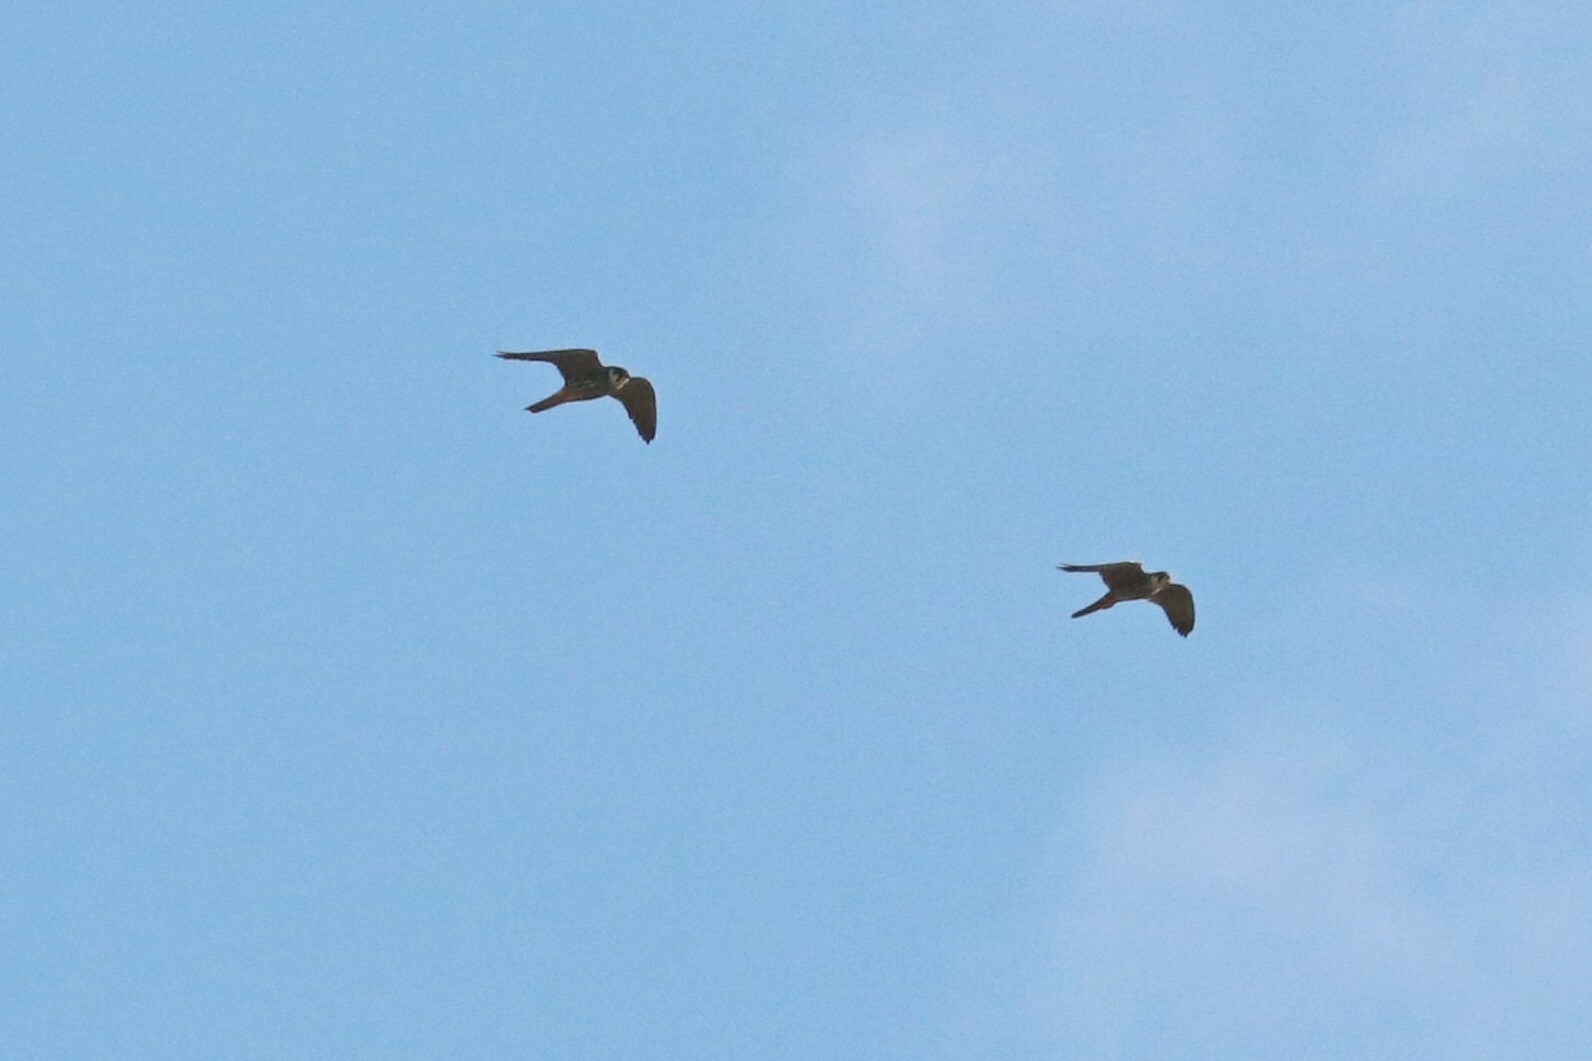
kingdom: Animalia
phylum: Chordata
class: Aves
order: Falconiformes
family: Falconidae
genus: Falco
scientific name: Falco subbuteo
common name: Eurasian hobby
